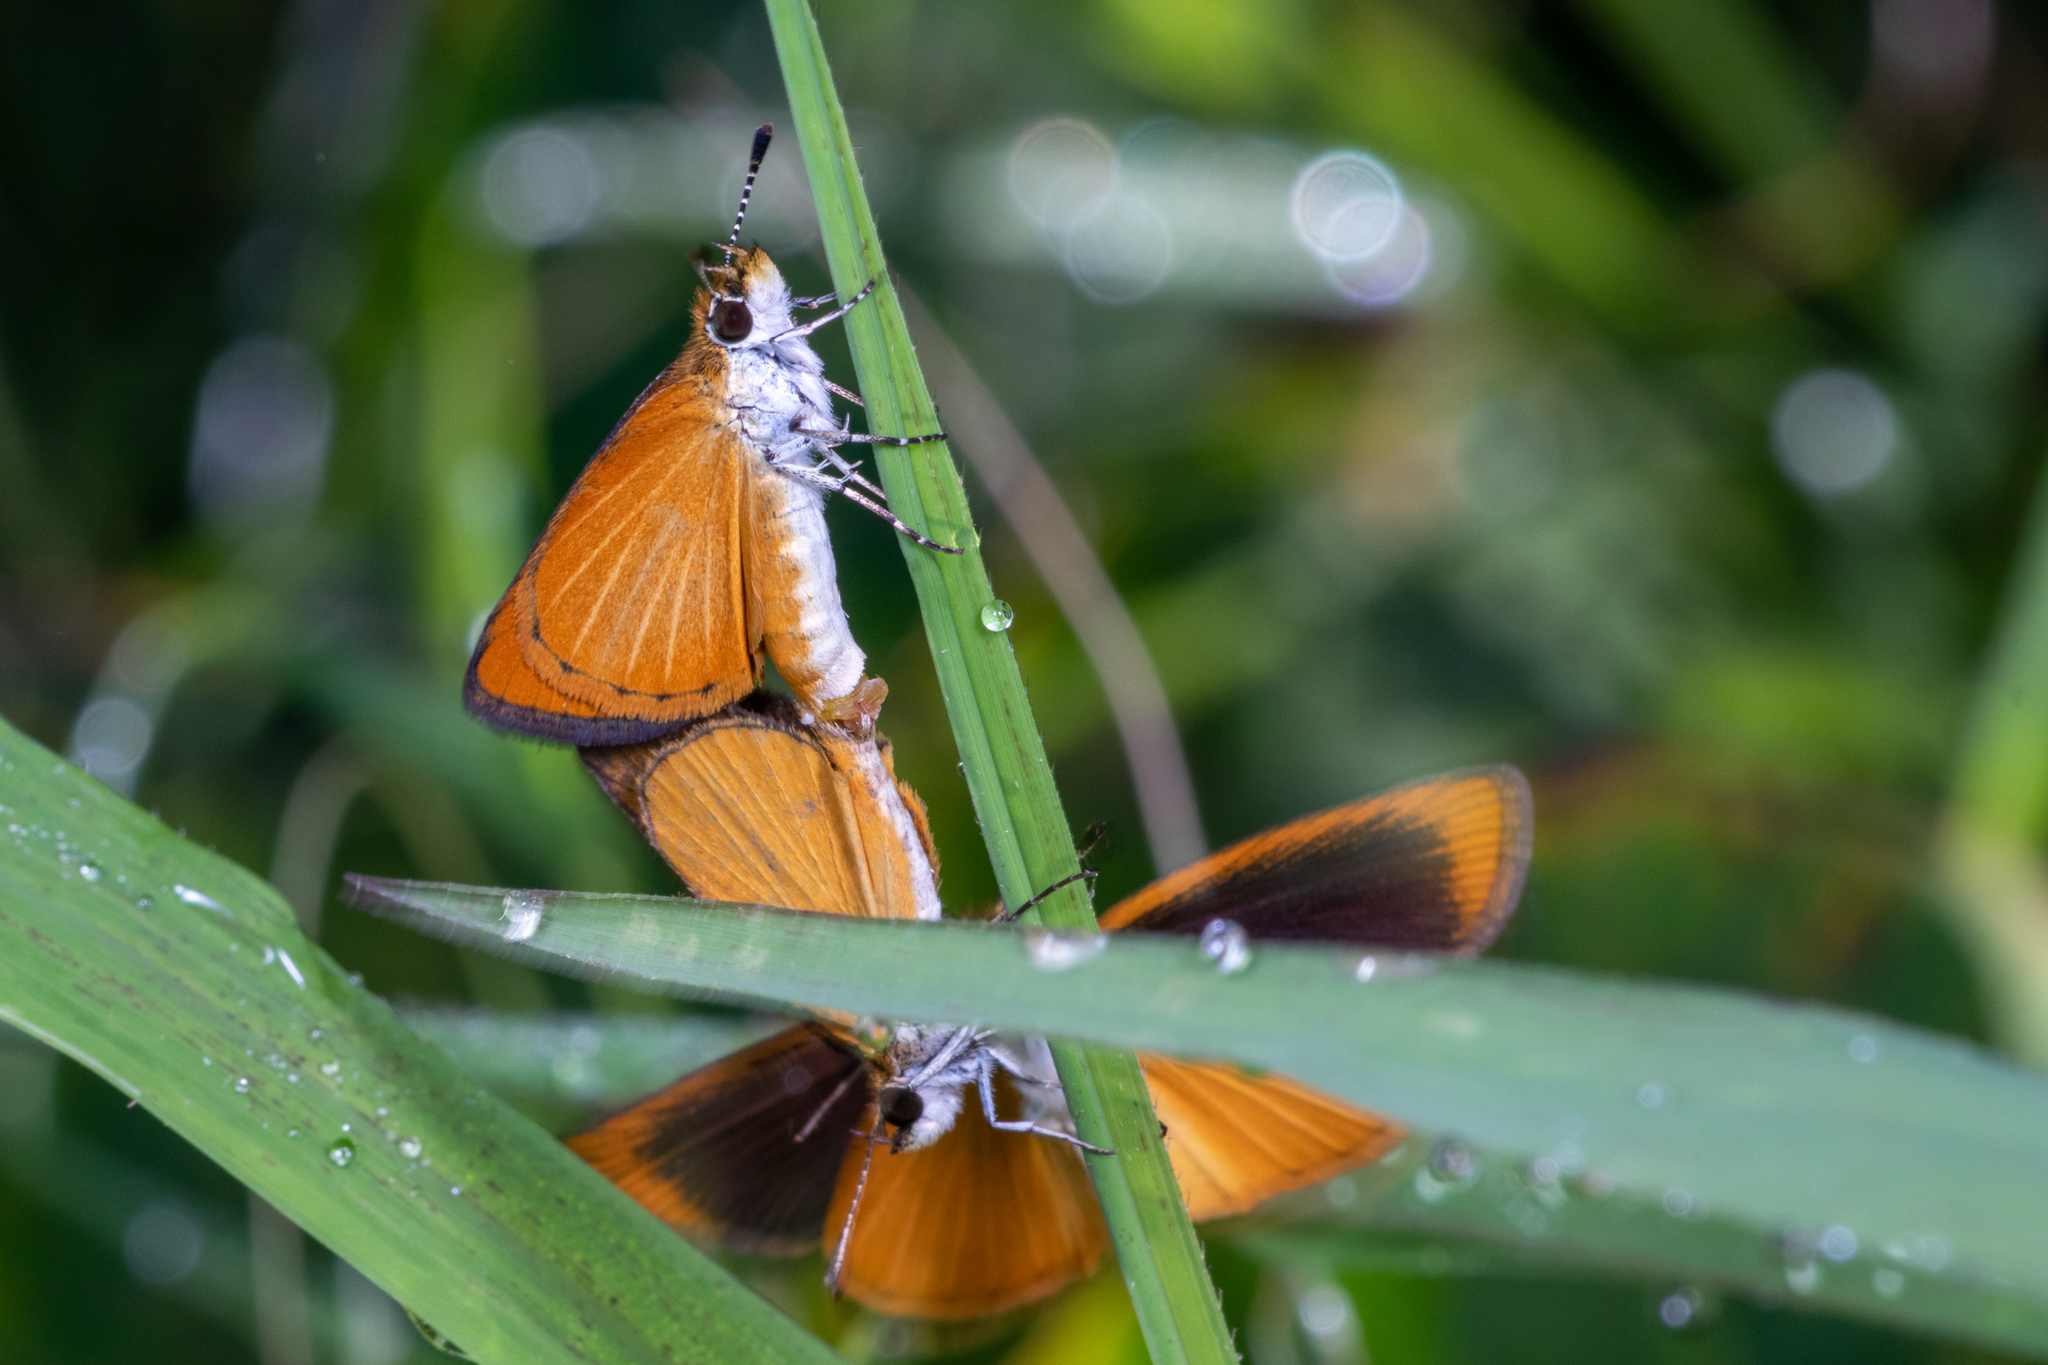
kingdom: Animalia
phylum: Arthropoda
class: Insecta
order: Lepidoptera
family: Hesperiidae
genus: Ancyloxypha
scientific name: Ancyloxypha numitor
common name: Least skipper
